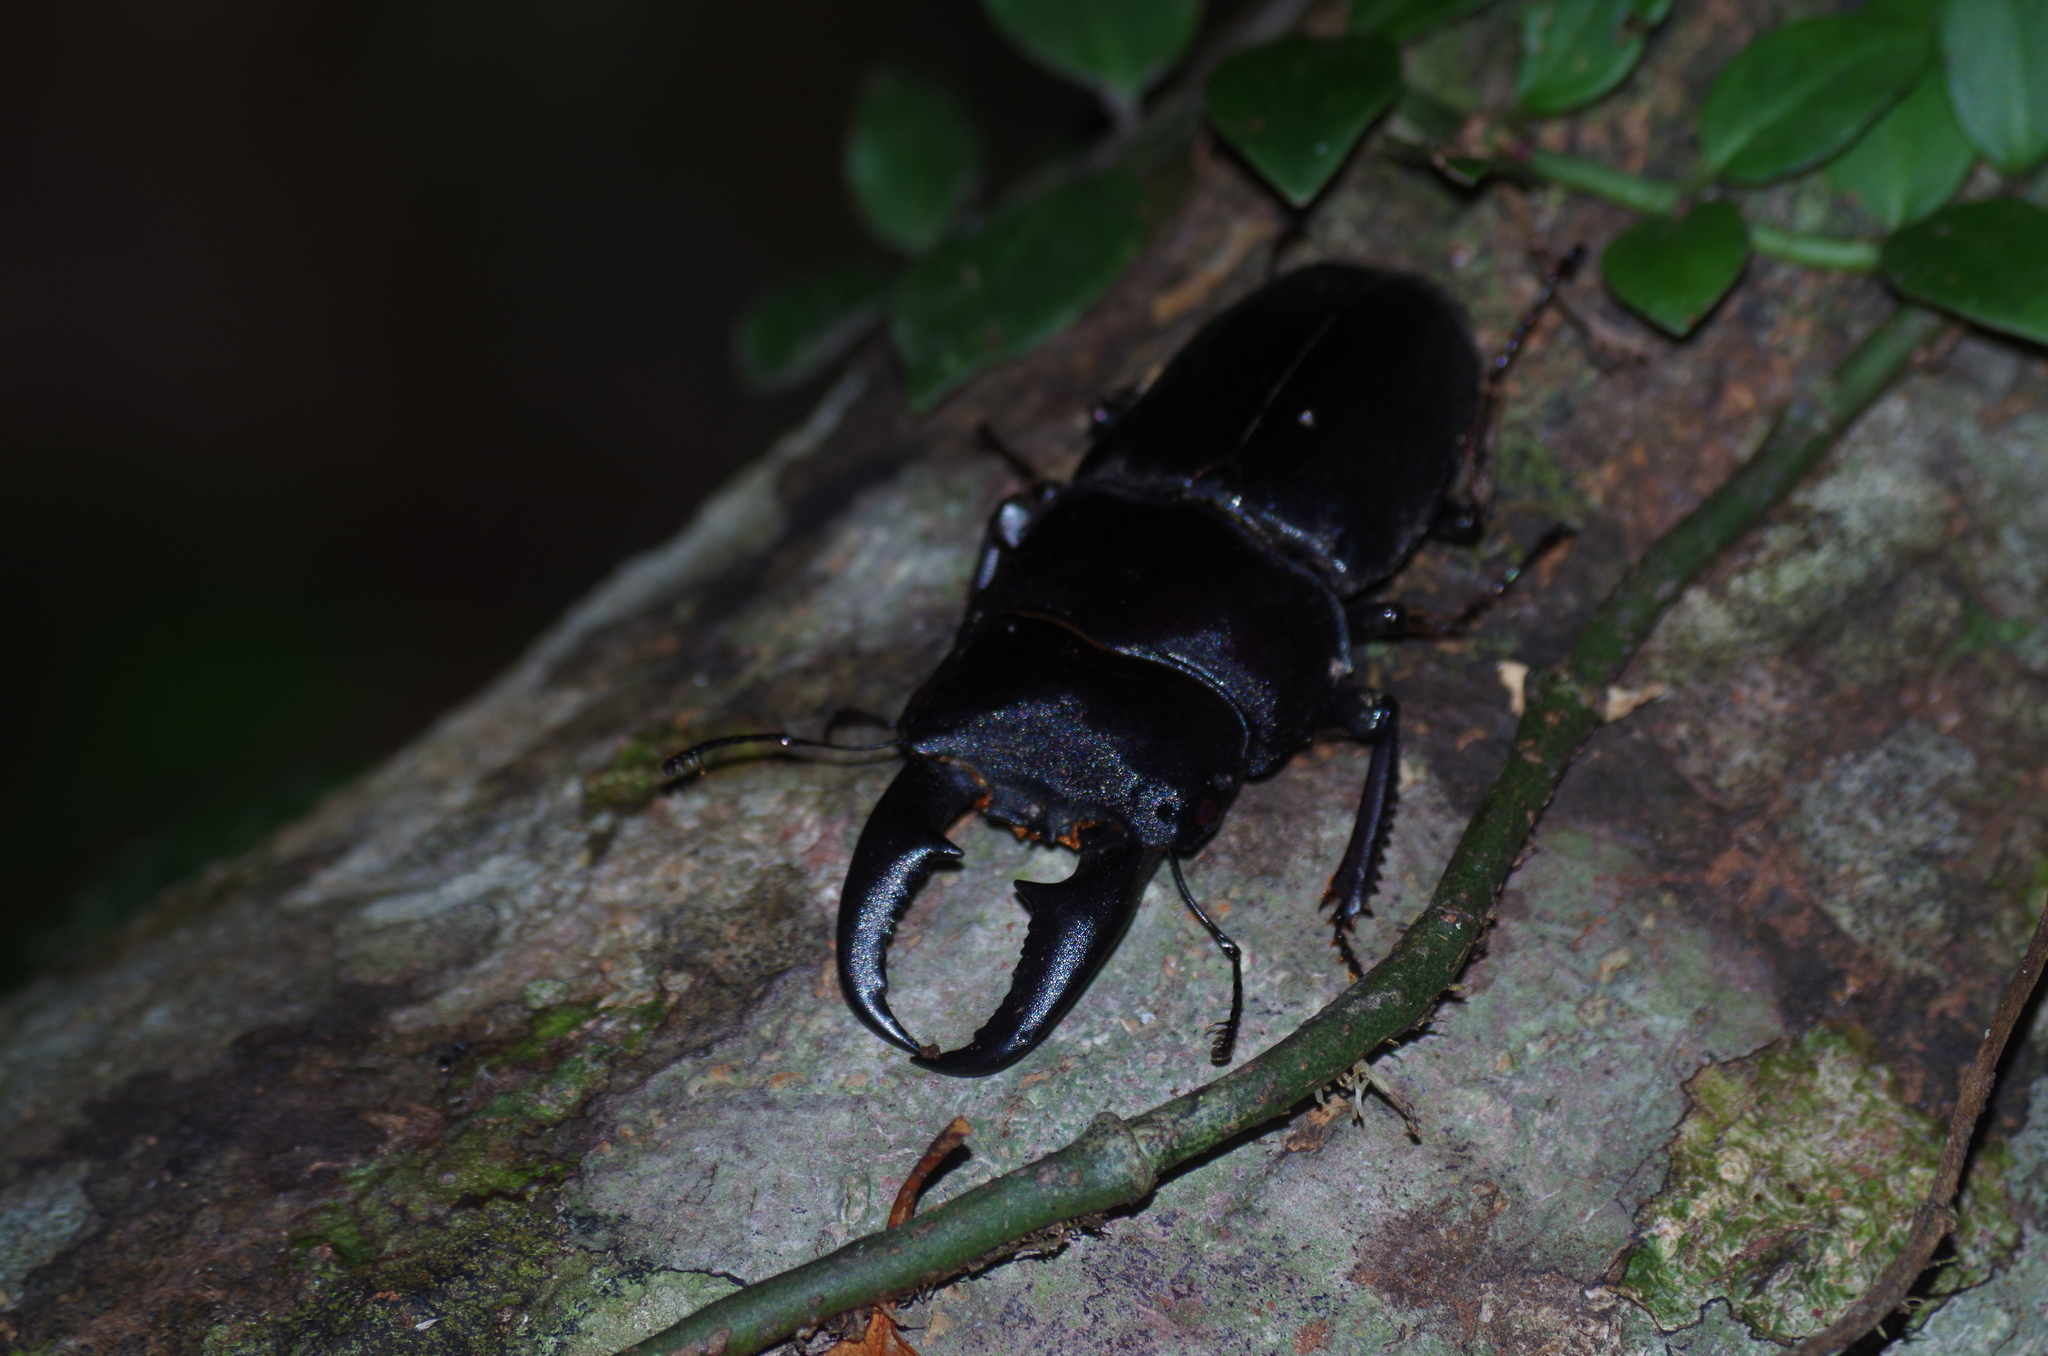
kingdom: Animalia
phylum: Arthropoda
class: Insecta
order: Coleoptera
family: Lucanidae
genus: Serrognathus
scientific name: Serrognathus titanus
